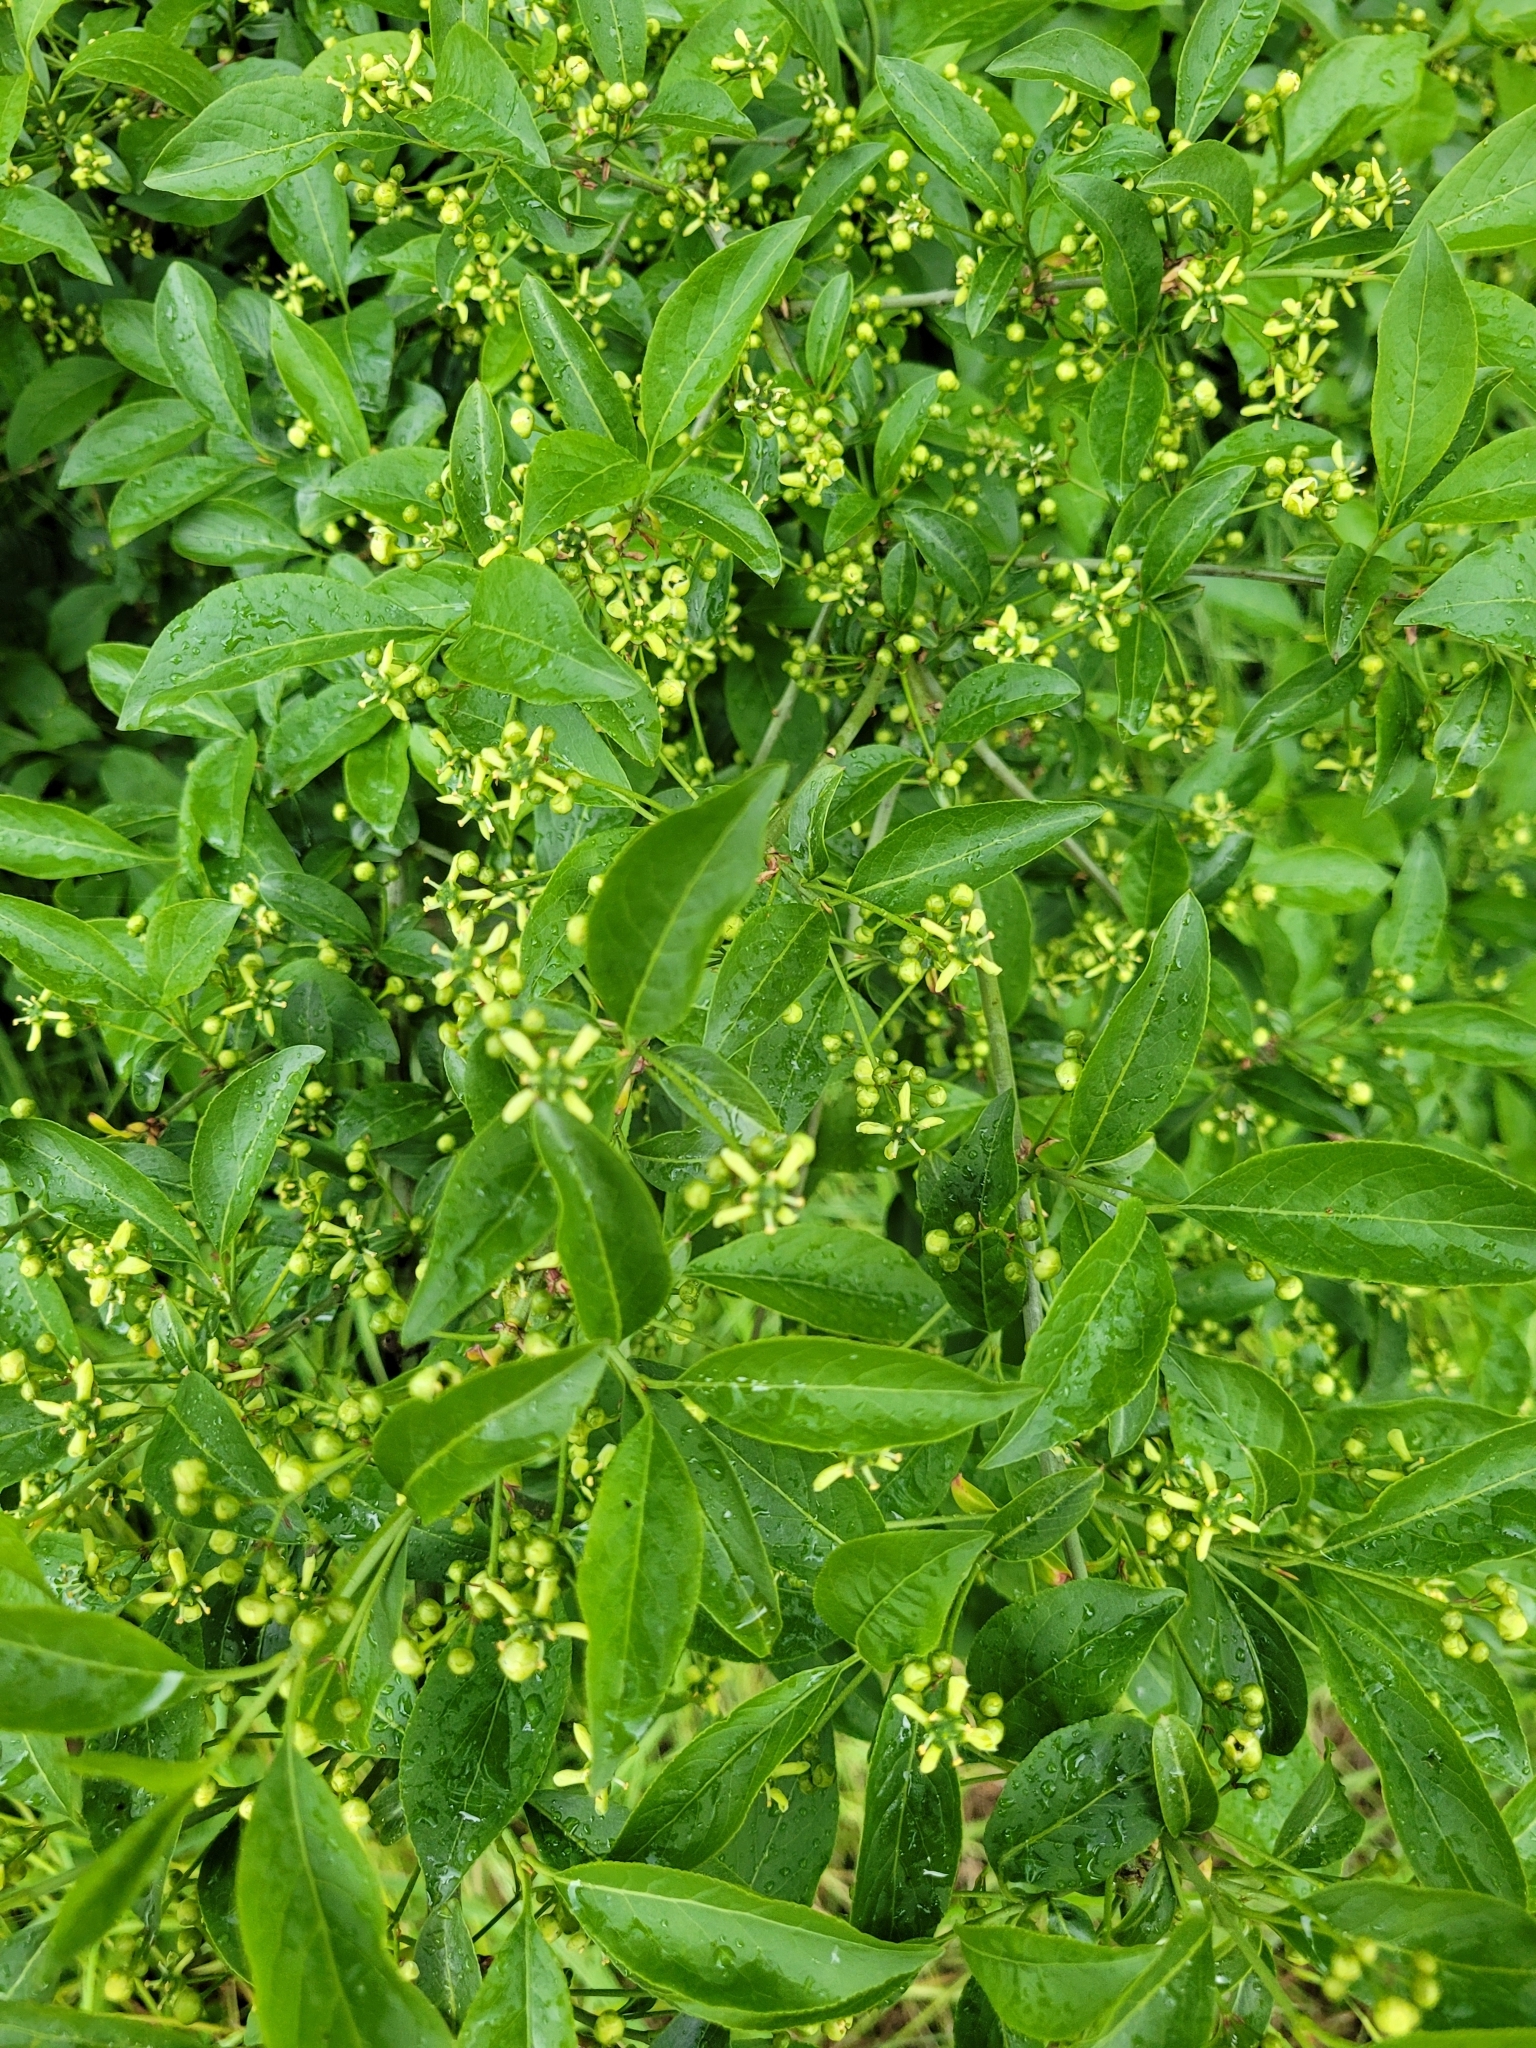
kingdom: Plantae
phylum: Tracheophyta
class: Magnoliopsida
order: Celastrales
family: Celastraceae
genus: Euonymus
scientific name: Euonymus europaeus
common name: Spindle
